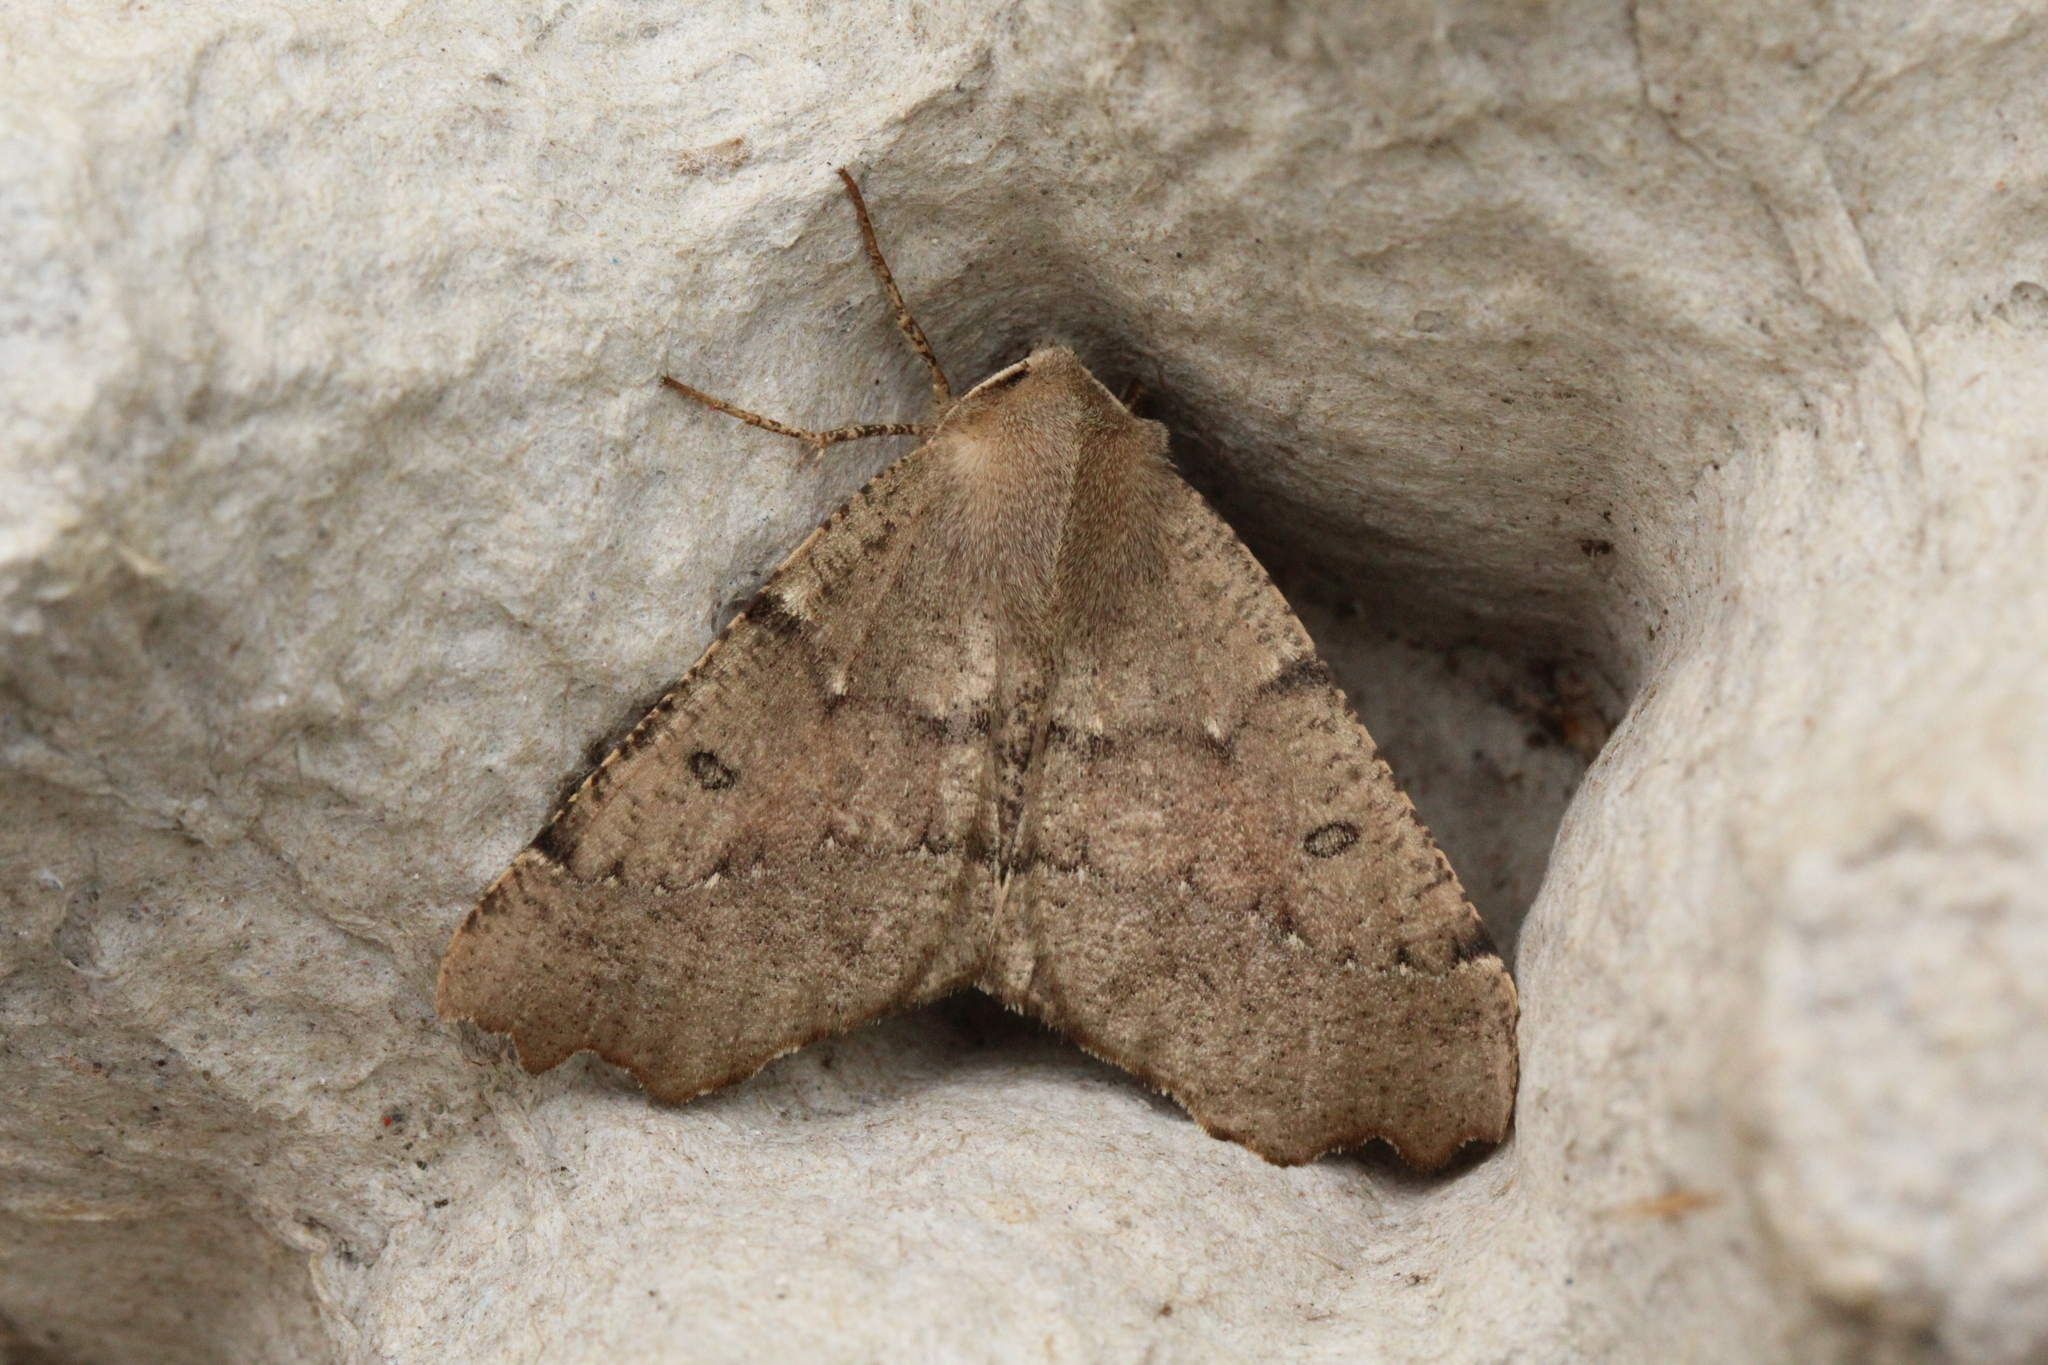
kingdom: Animalia
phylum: Arthropoda
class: Insecta
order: Lepidoptera
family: Geometridae
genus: Odontopera
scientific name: Odontopera bidentata
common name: Scalloped hazel
